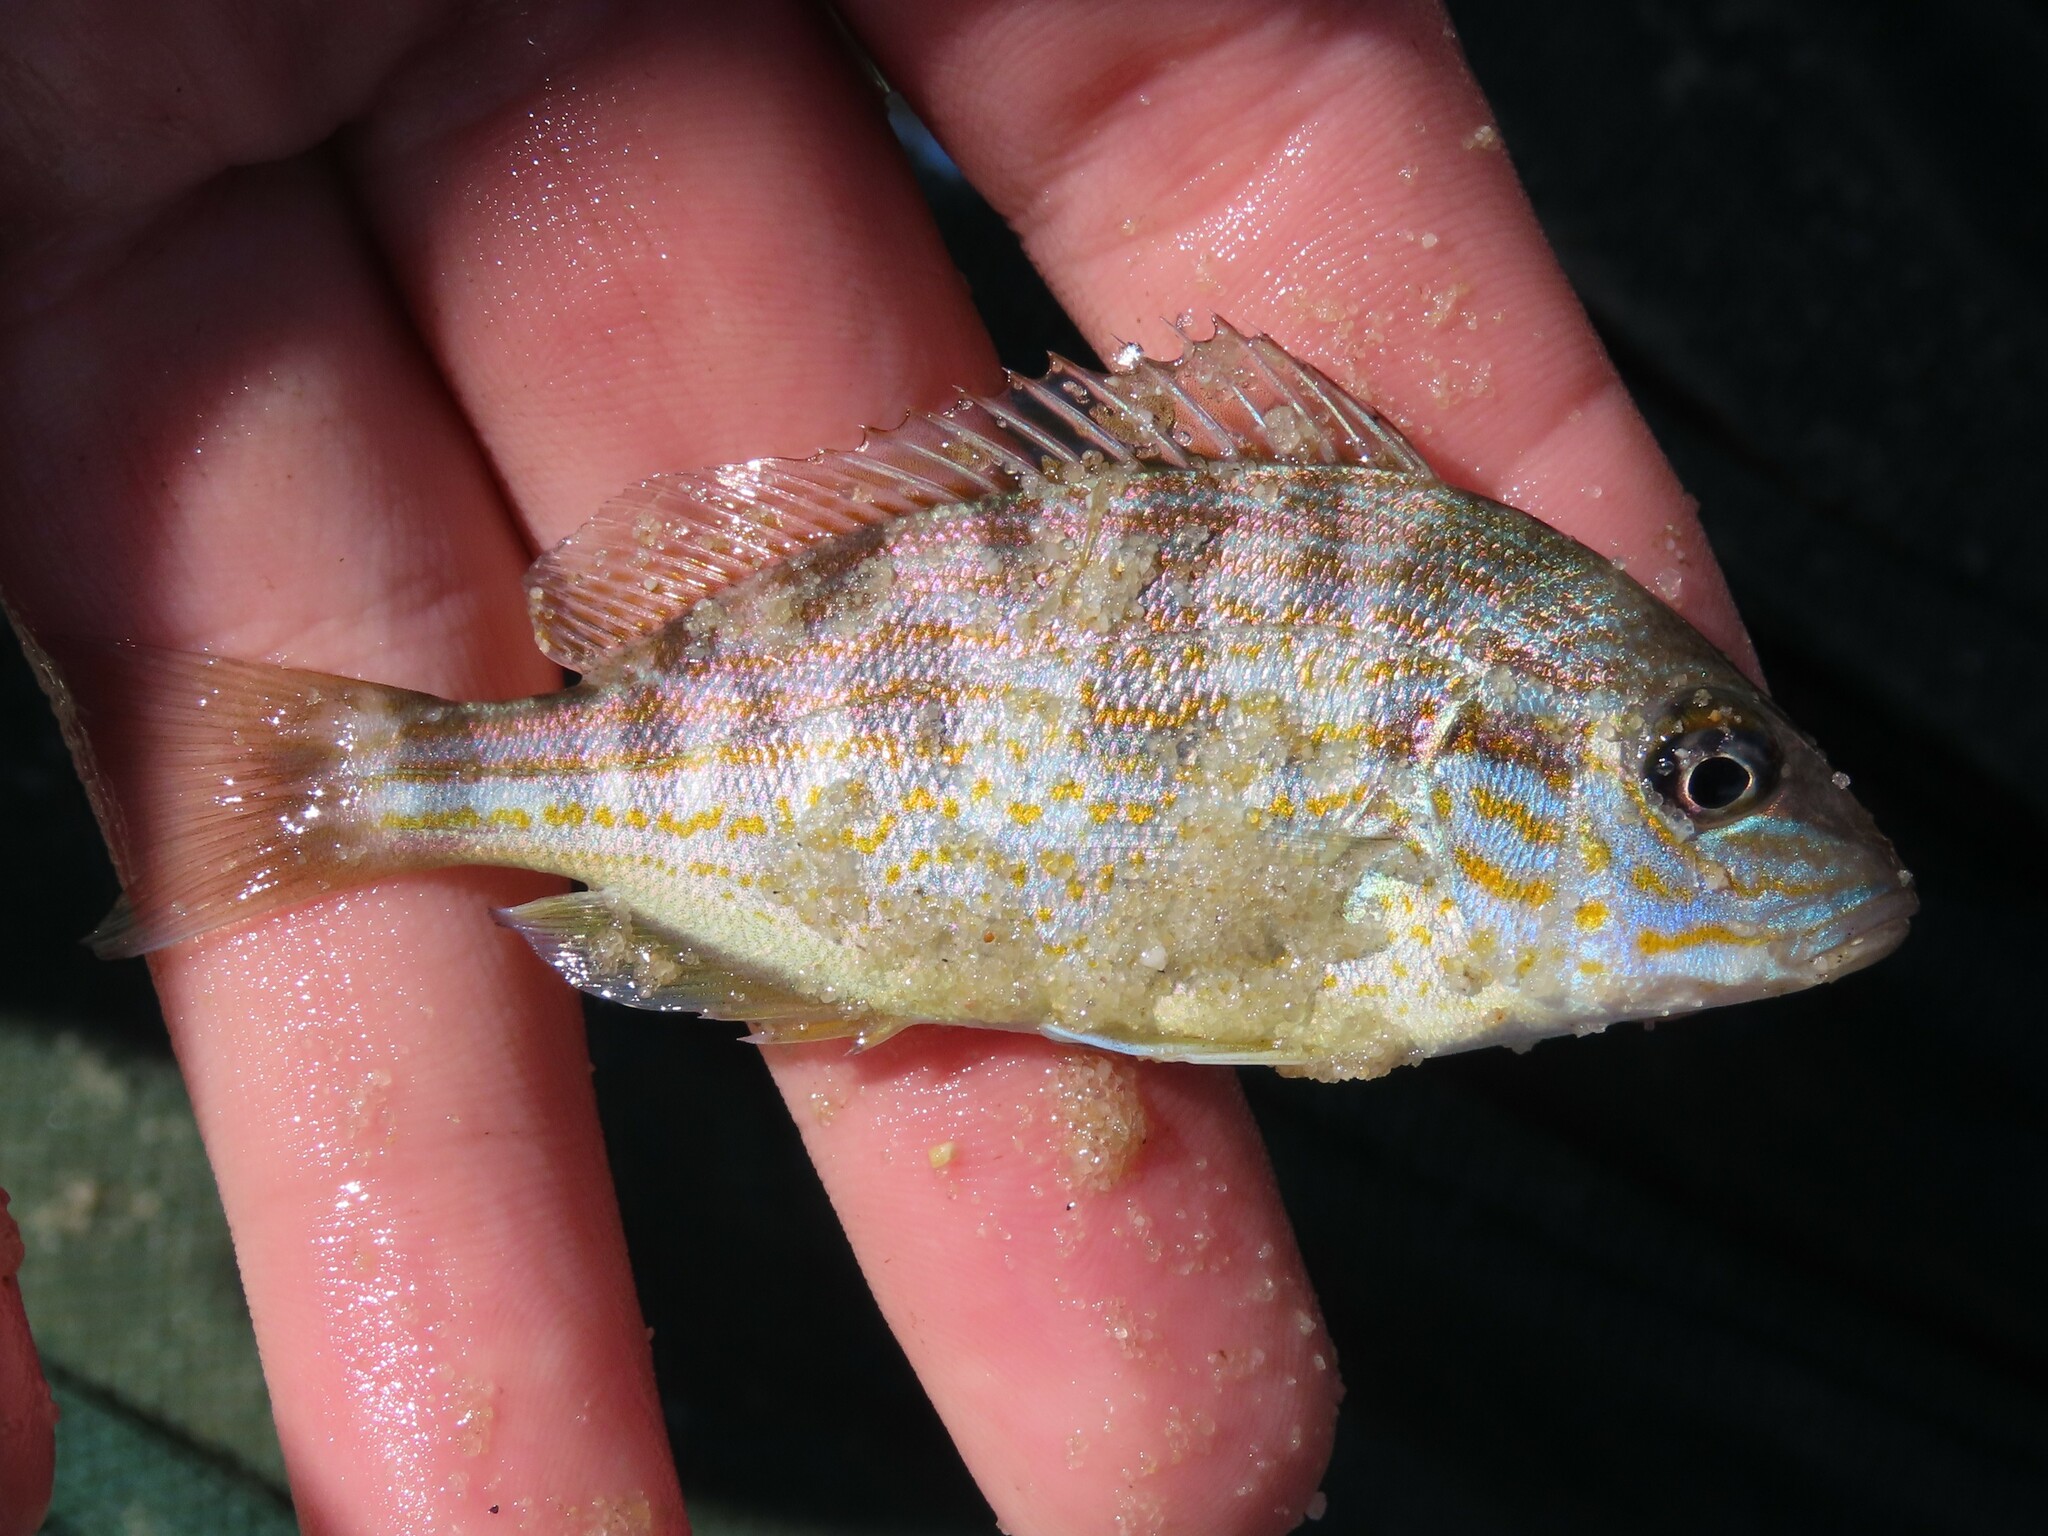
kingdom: Animalia
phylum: Chordata
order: Perciformes
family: Haemulidae
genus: Orthopristis
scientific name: Orthopristis chrysoptera
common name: Pigfish
